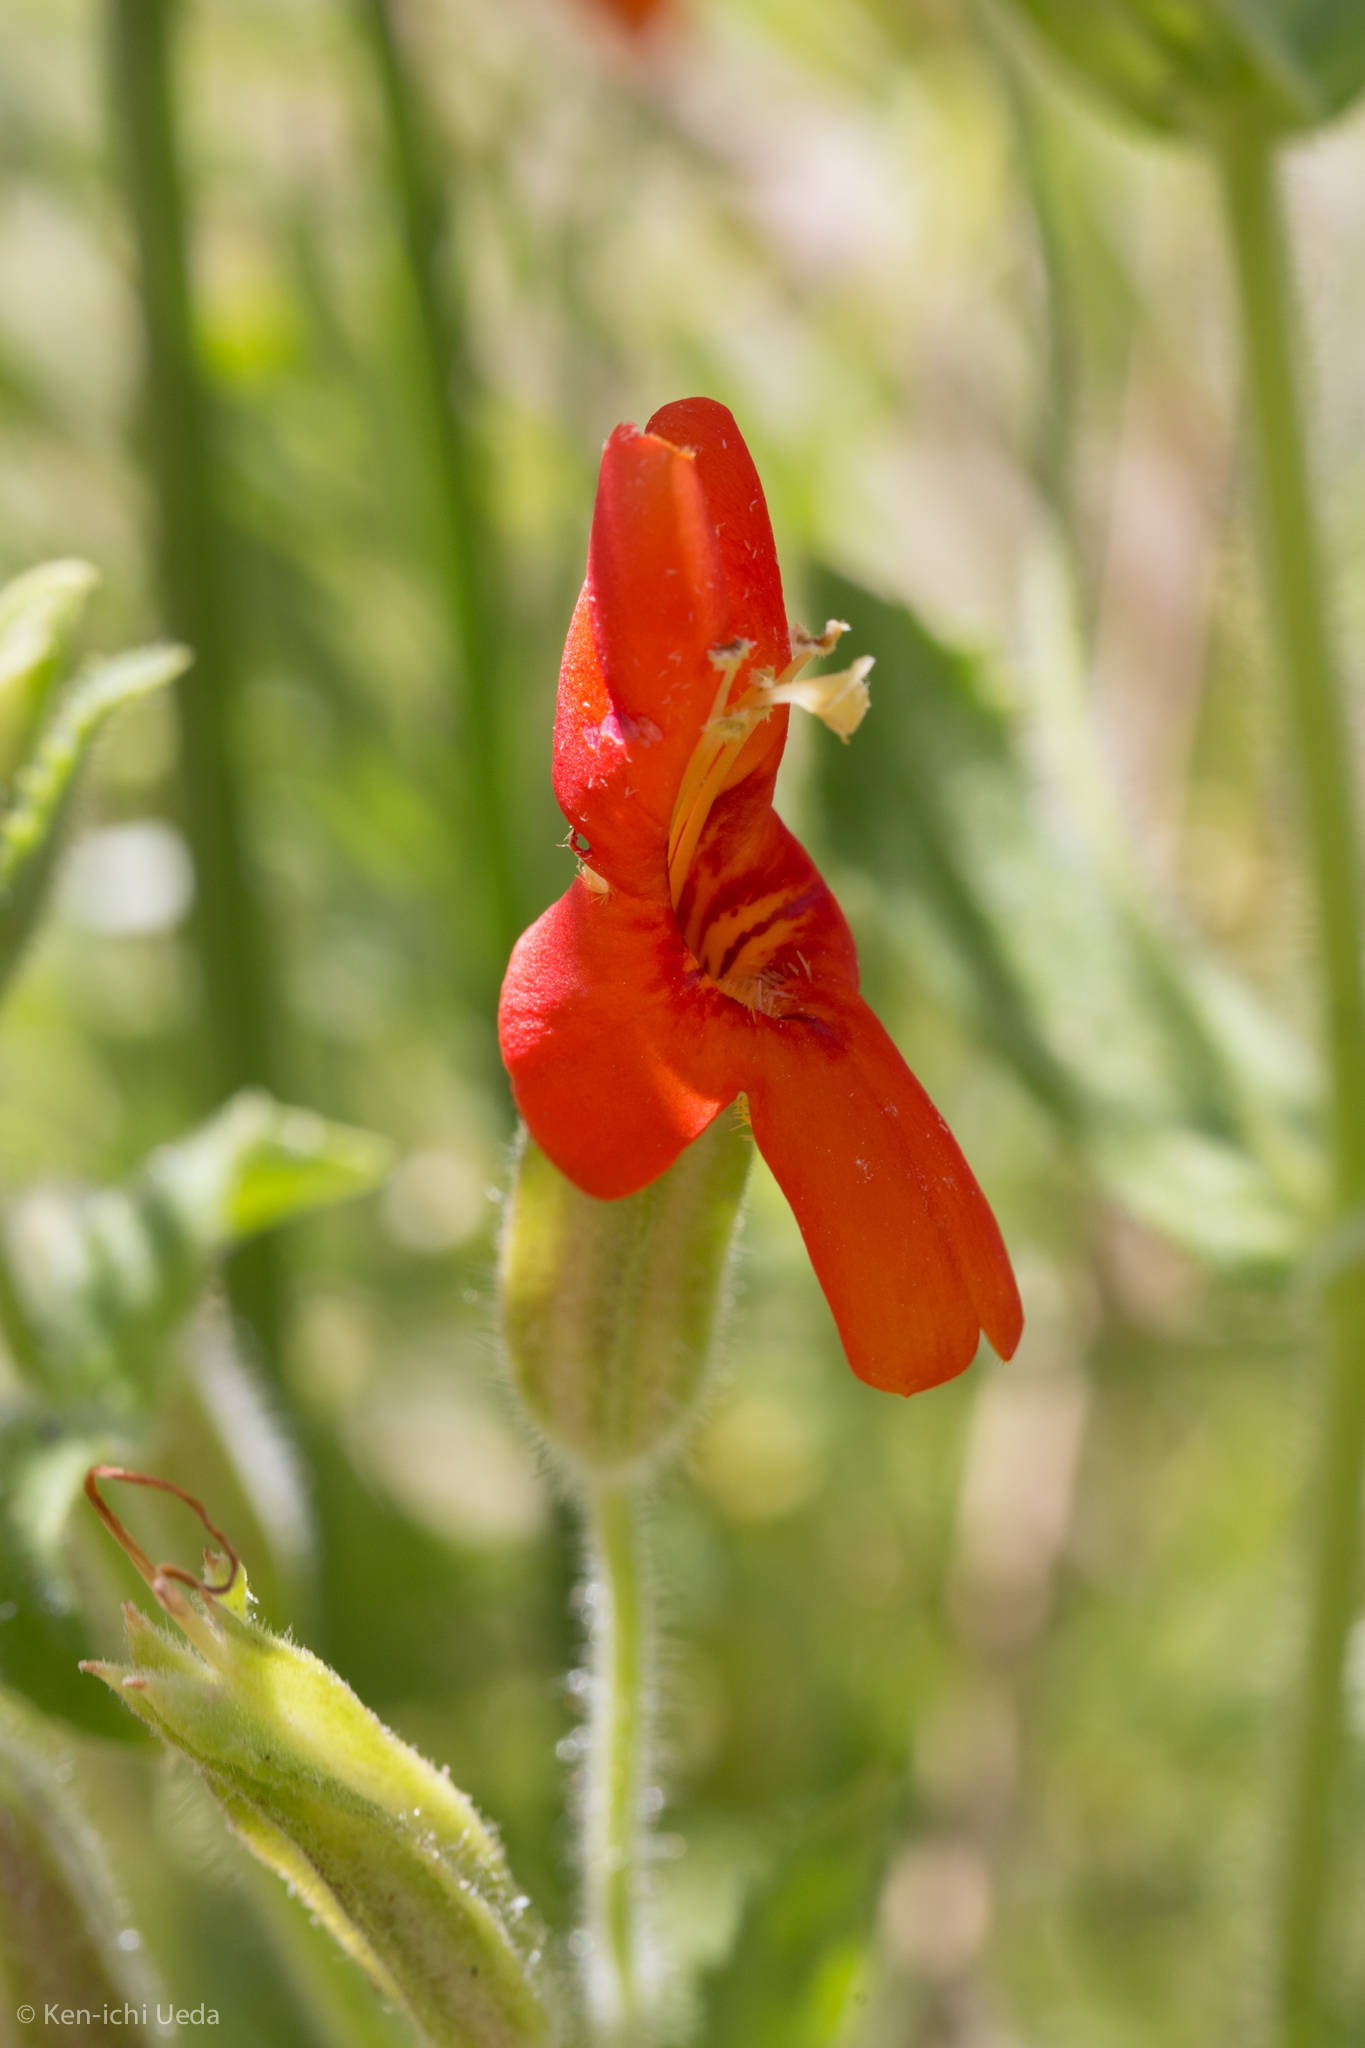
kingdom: Plantae
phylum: Tracheophyta
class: Magnoliopsida
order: Lamiales
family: Phrymaceae
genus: Erythranthe
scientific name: Erythranthe cardinalis
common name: Scarlet monkey-flower
